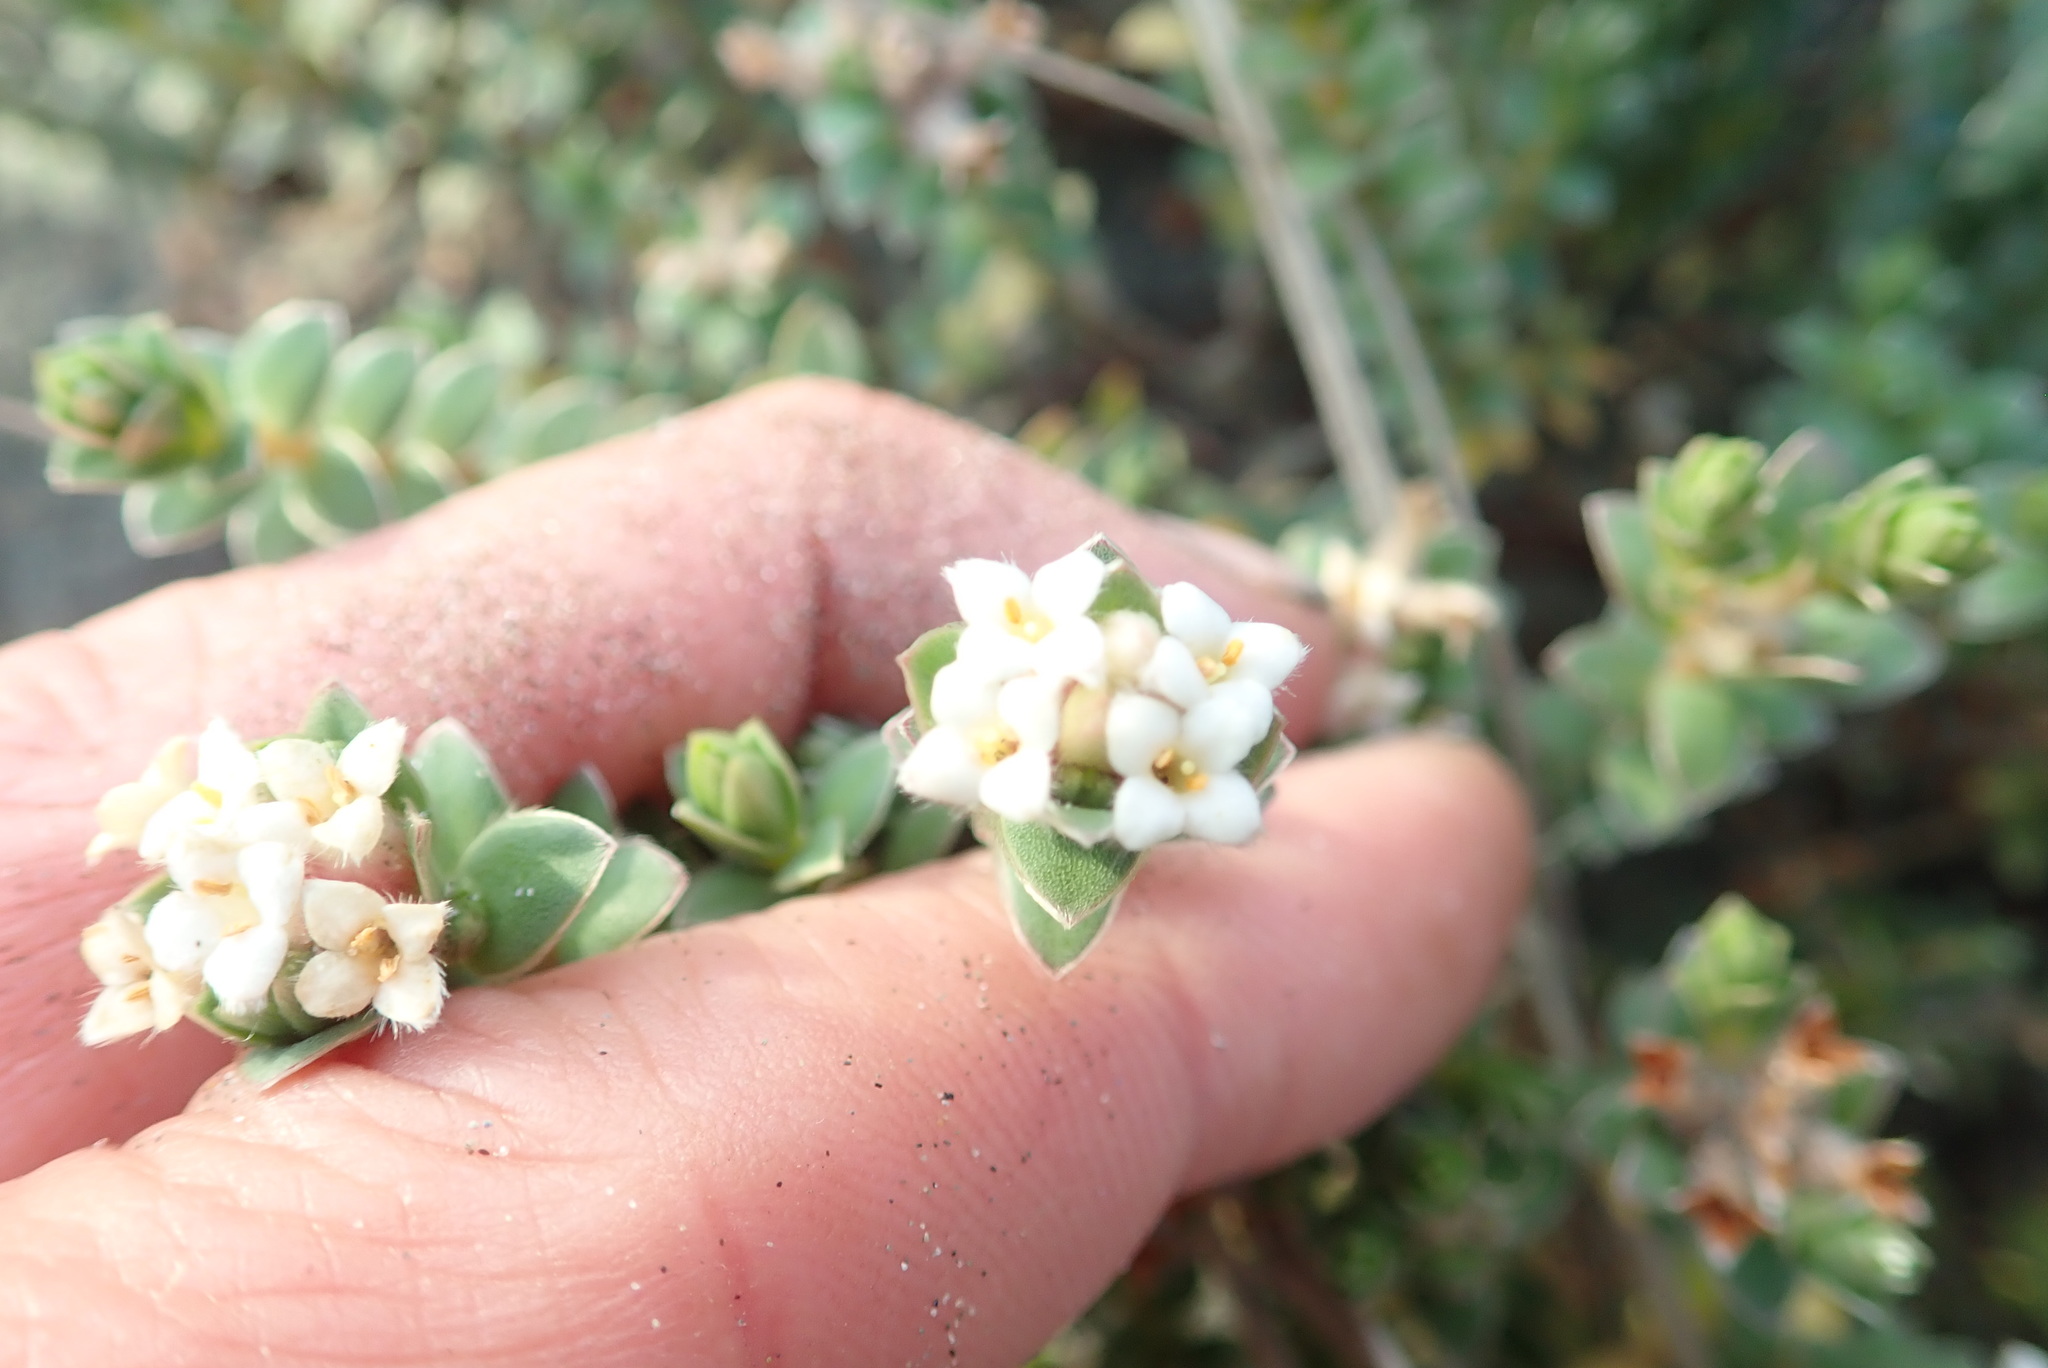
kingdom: Plantae
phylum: Tracheophyta
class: Magnoliopsida
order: Malvales
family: Thymelaeaceae
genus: Pimelea
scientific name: Pimelea villosa
